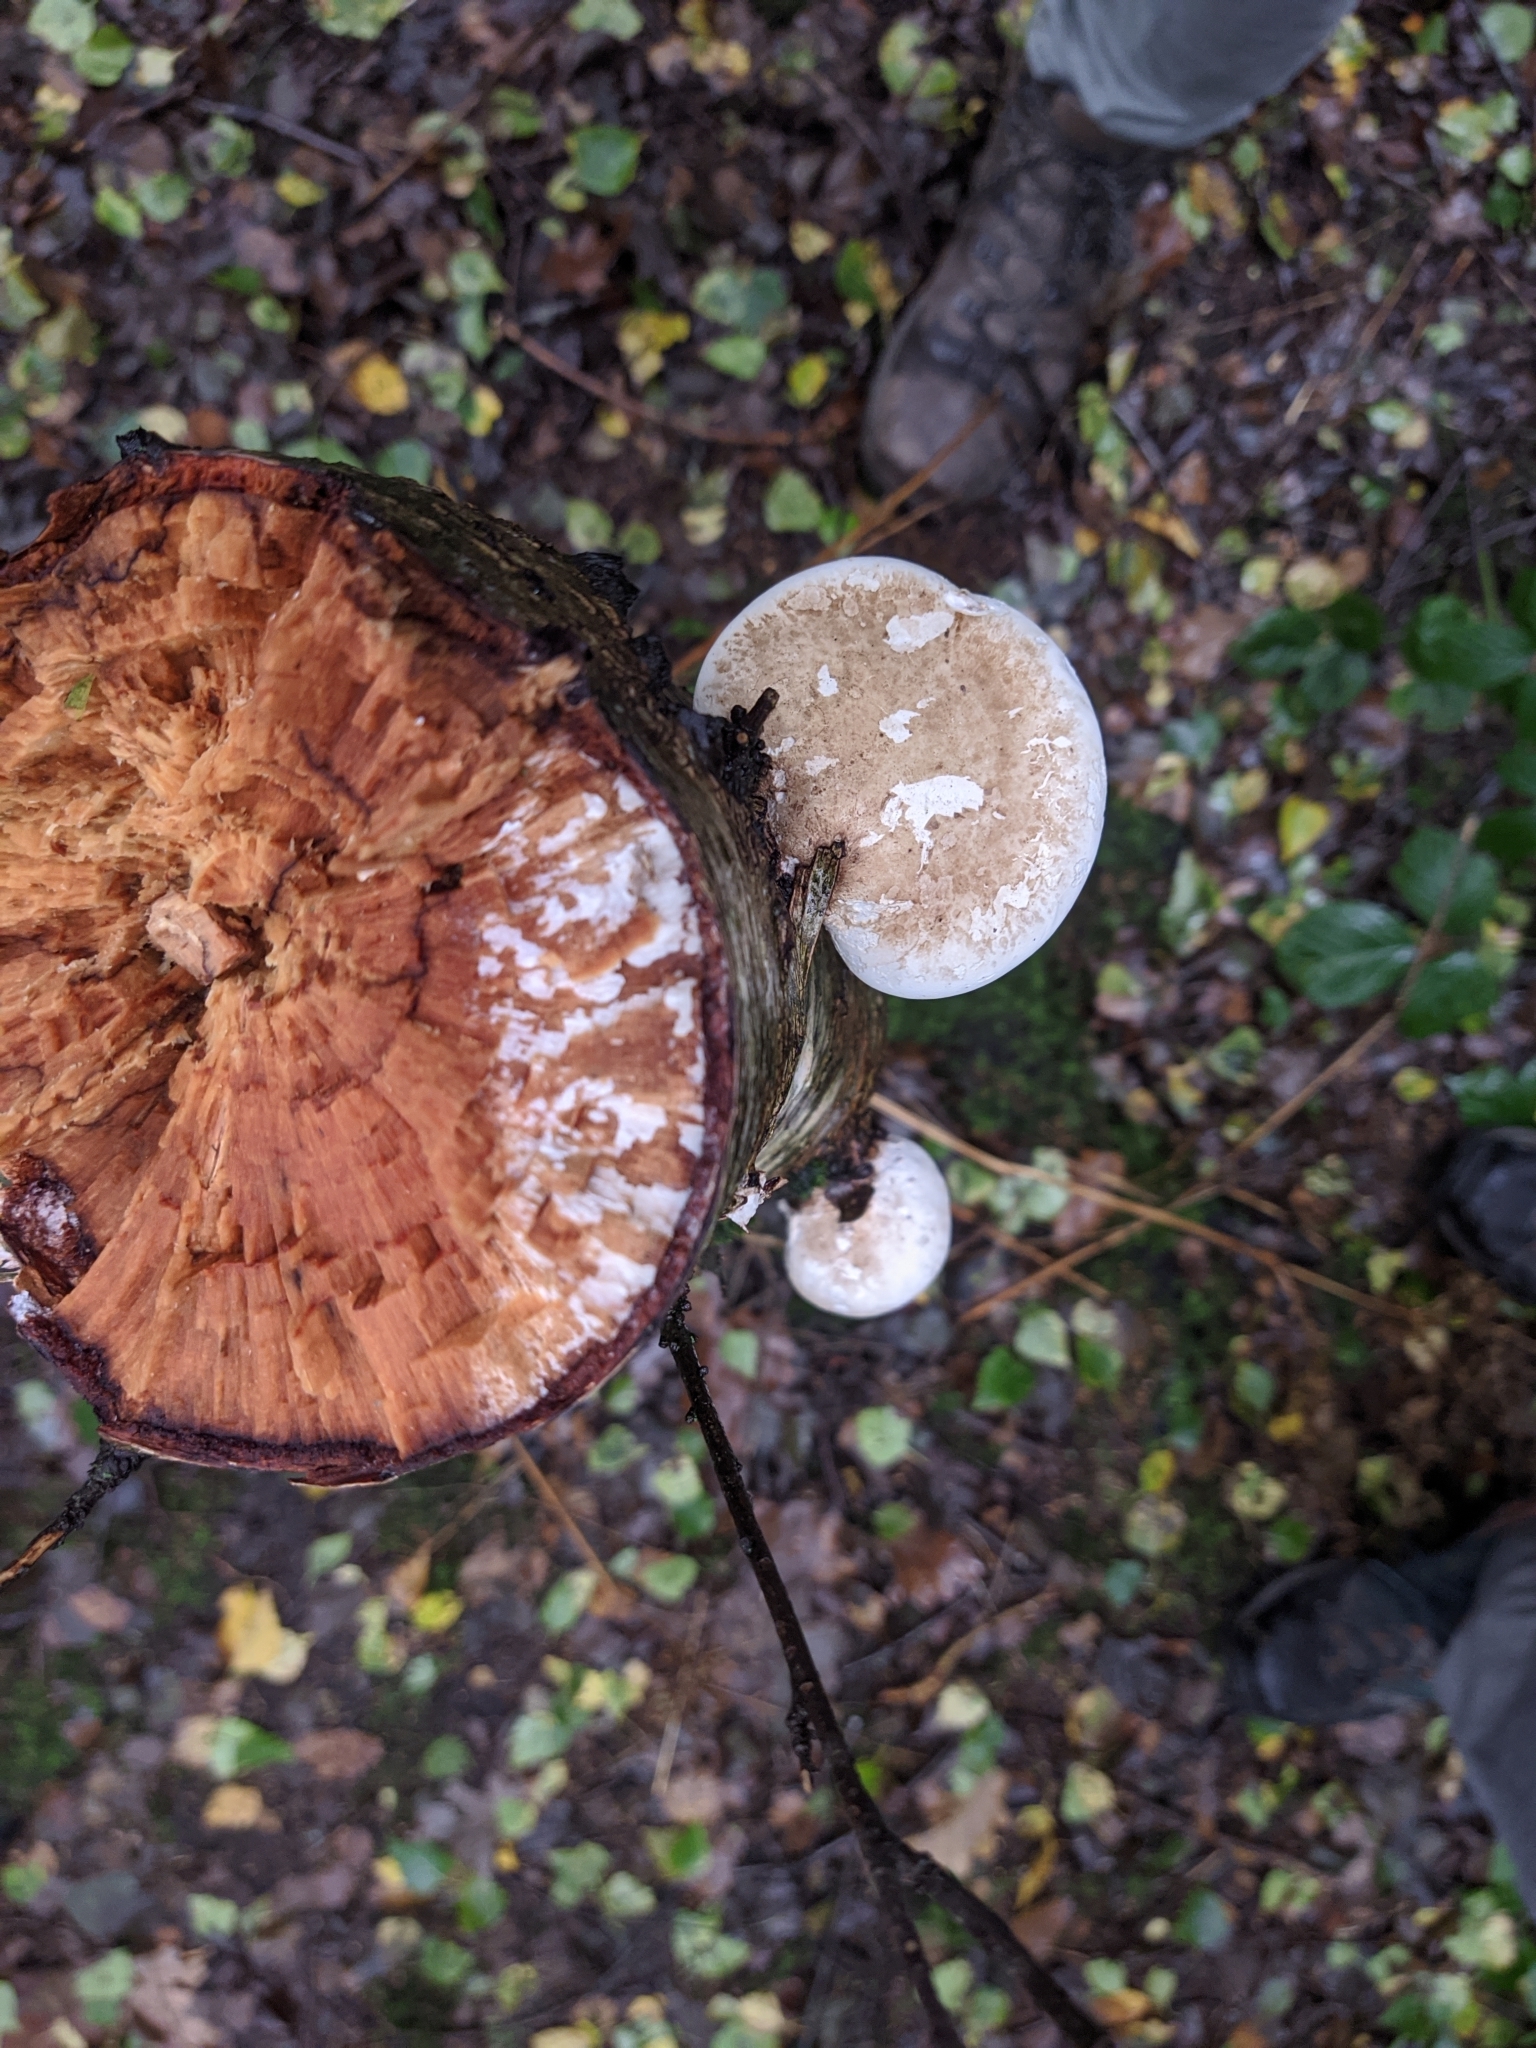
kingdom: Fungi
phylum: Basidiomycota
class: Agaricomycetes
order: Polyporales
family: Fomitopsidaceae
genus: Fomitopsis
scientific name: Fomitopsis betulina
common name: Birch polypore
